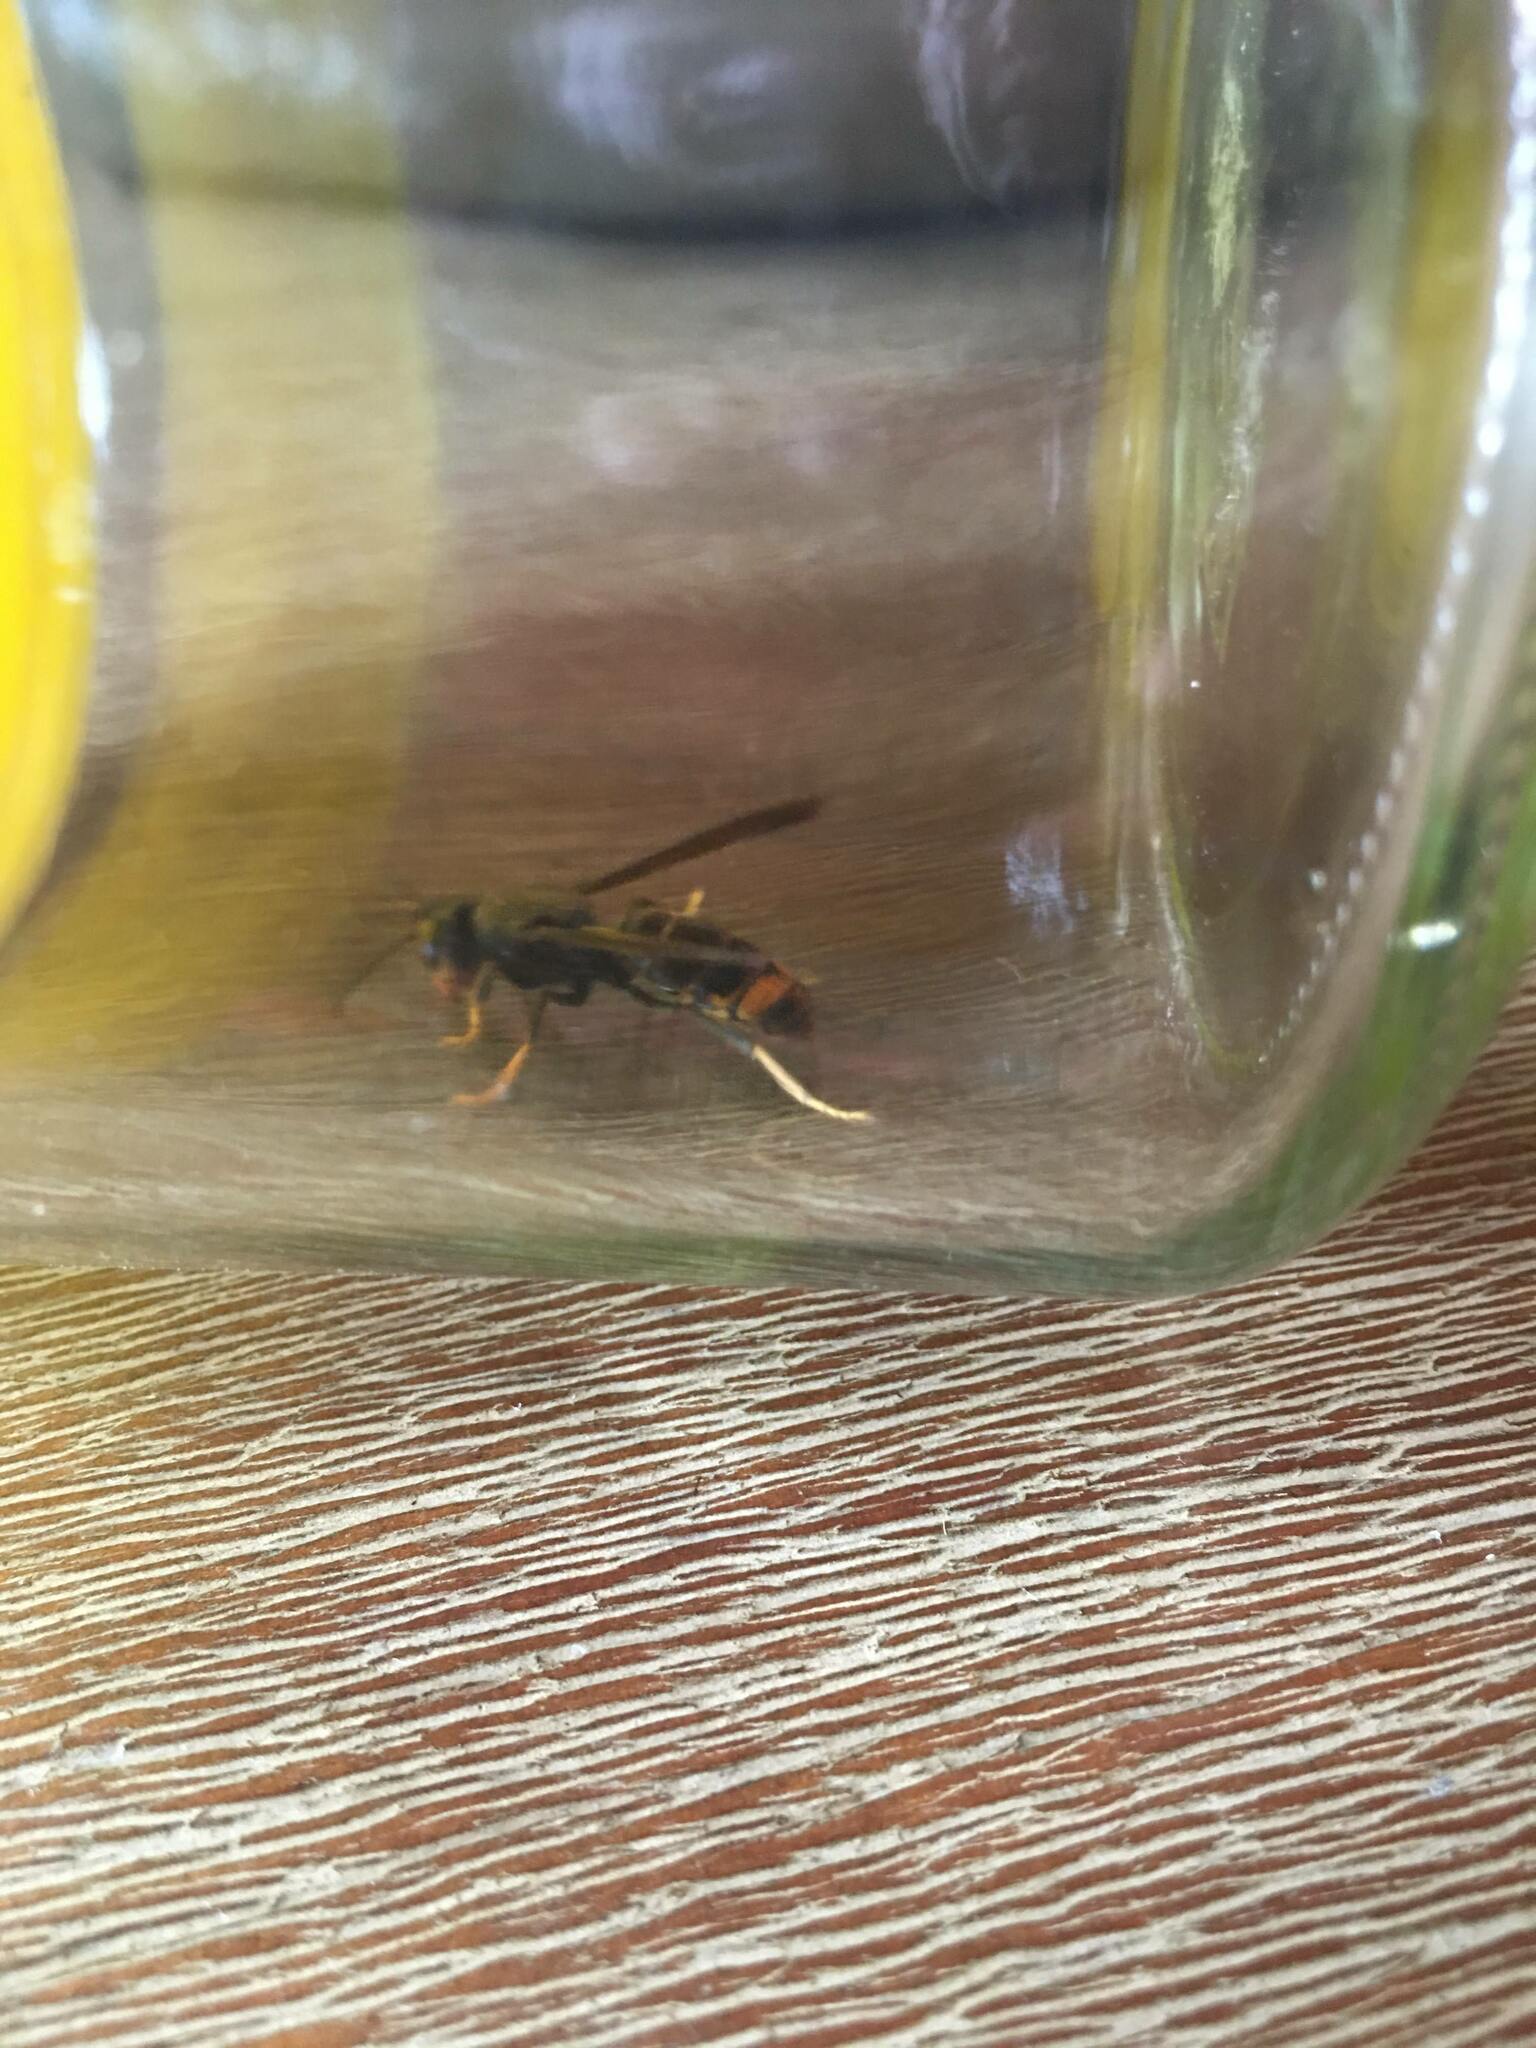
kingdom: Animalia
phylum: Arthropoda
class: Insecta
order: Hymenoptera
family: Vespidae
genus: Vespa
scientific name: Vespa velutina
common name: Asian hornet
